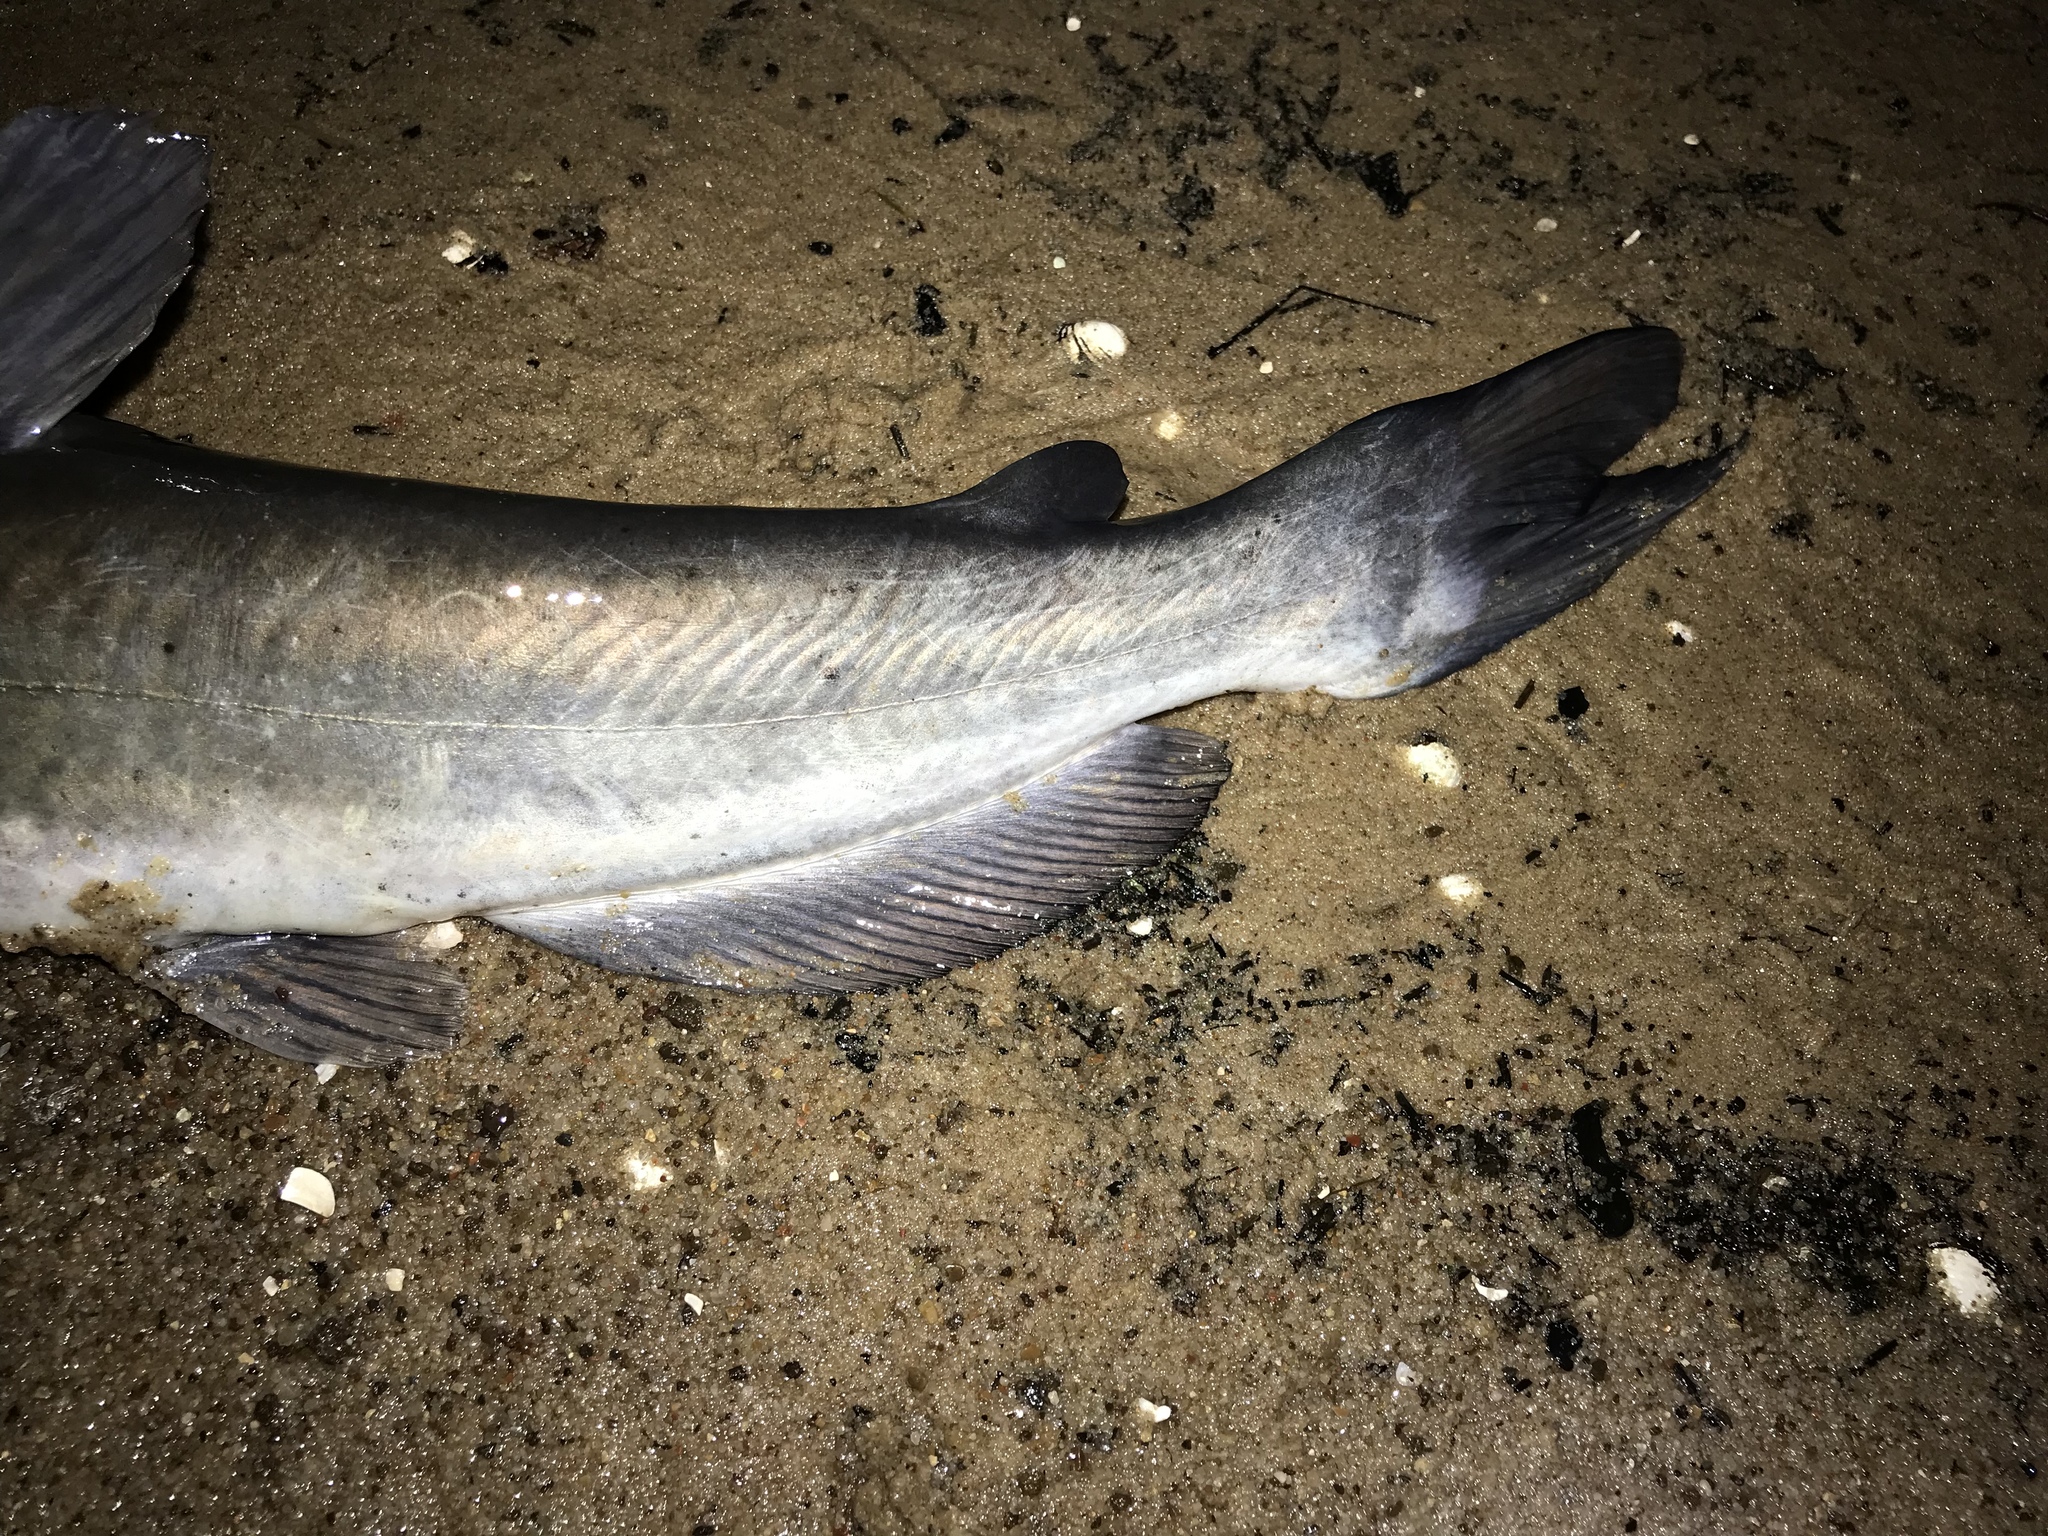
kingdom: Animalia
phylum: Chordata
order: Siluriformes
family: Ictaluridae
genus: Ictalurus
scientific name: Ictalurus punctatus
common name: Channel catfish
